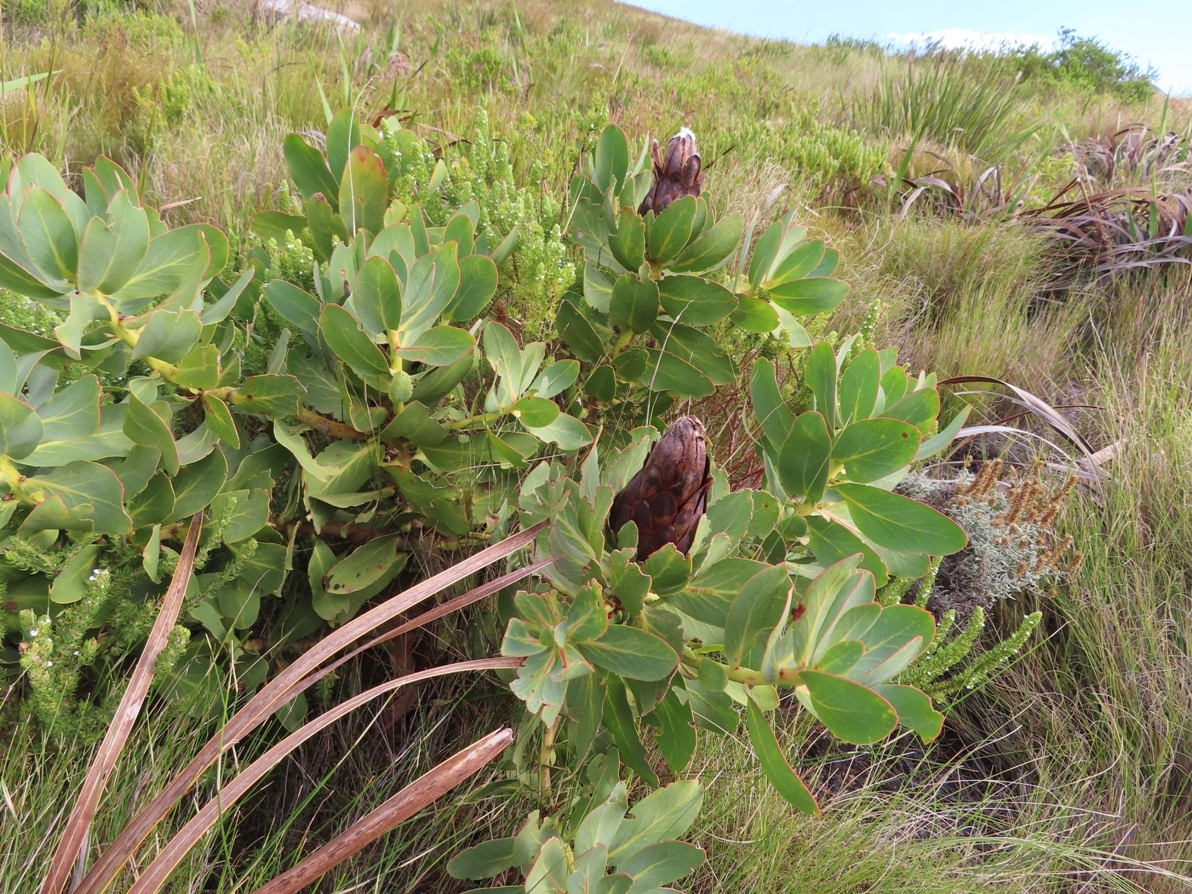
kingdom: Plantae
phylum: Tracheophyta
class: Magnoliopsida
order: Proteales
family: Proteaceae
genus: Protea
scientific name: Protea grandiceps
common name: Red sugarbush
